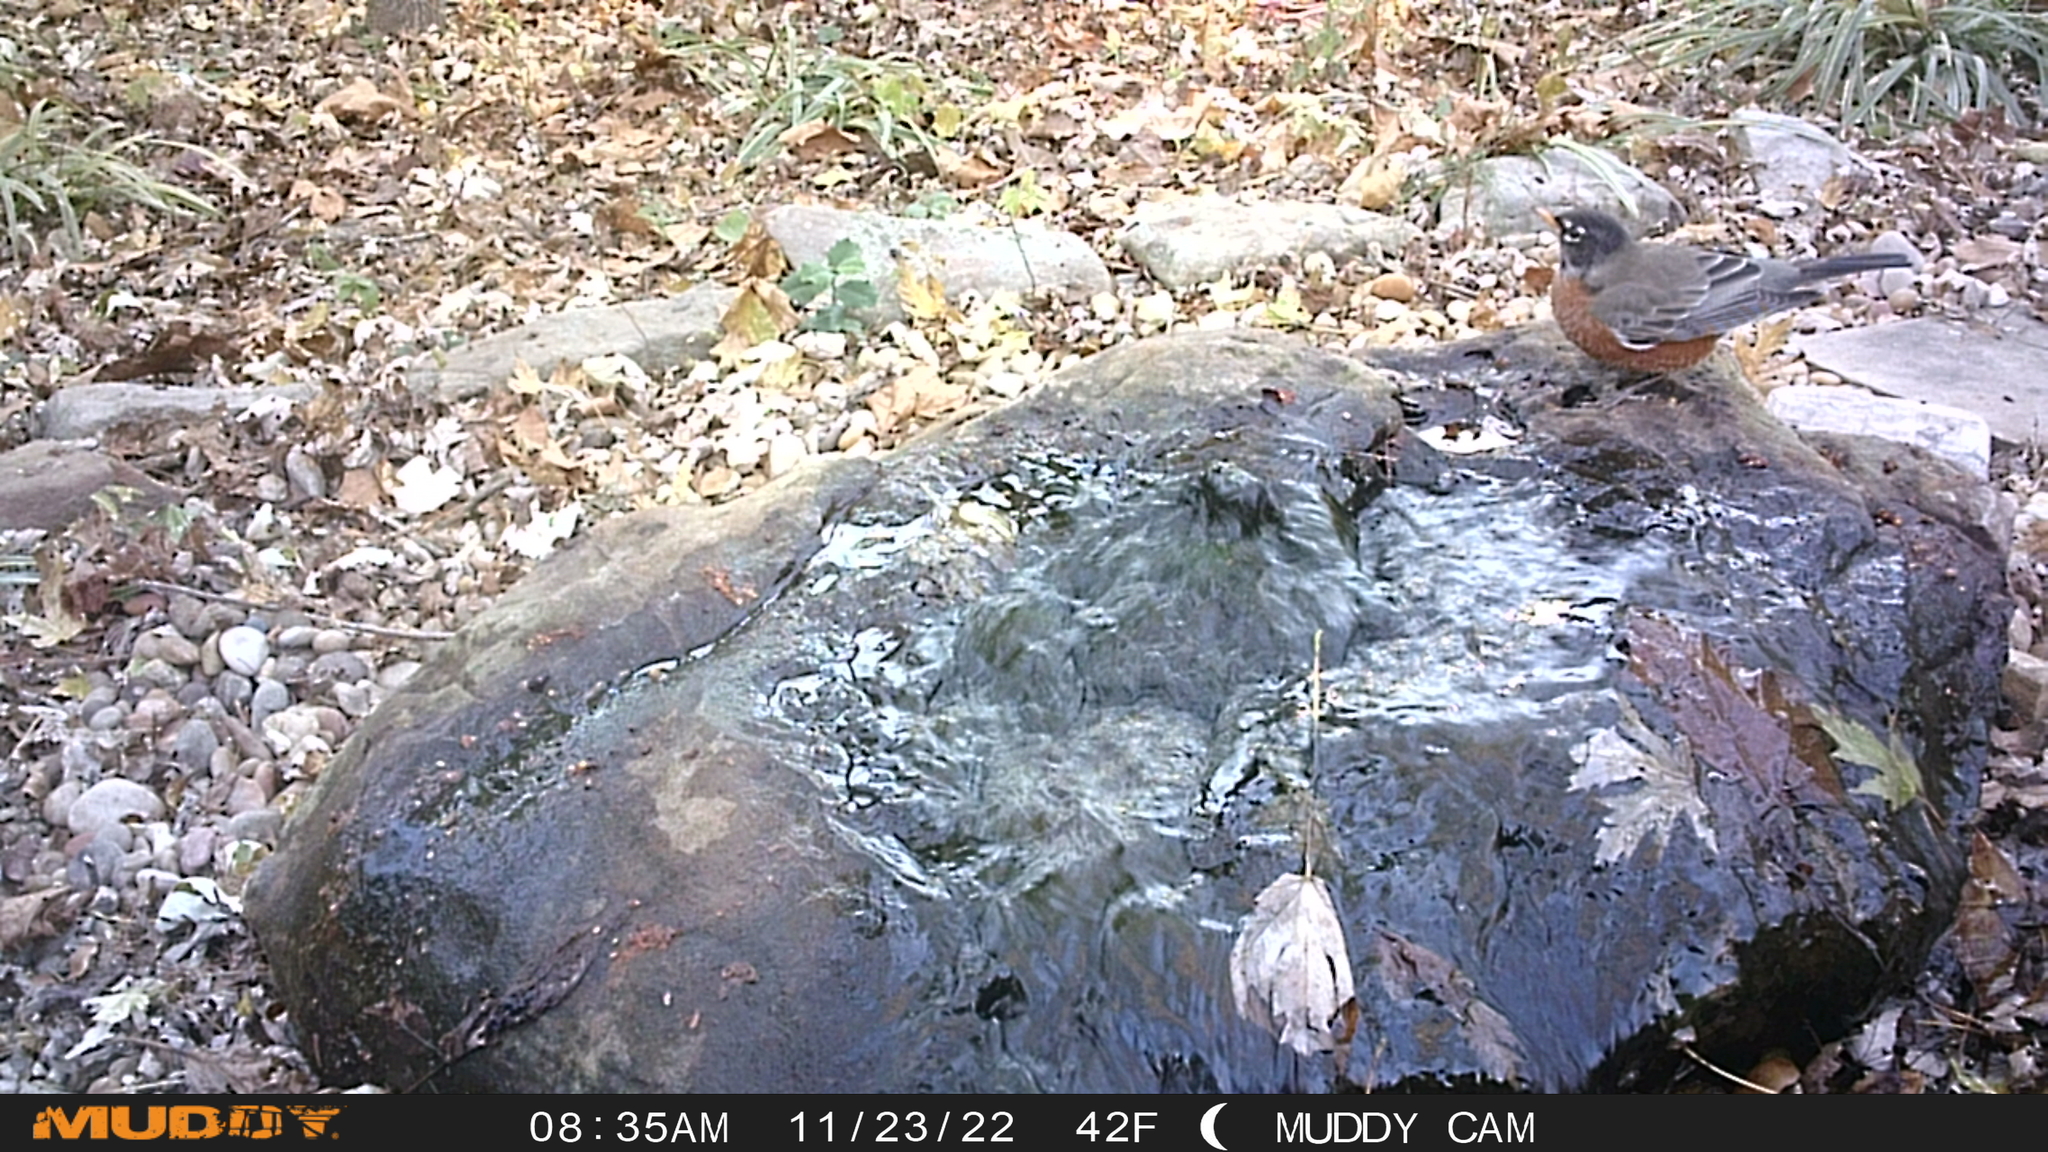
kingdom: Animalia
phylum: Chordata
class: Aves
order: Passeriformes
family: Turdidae
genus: Turdus
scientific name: Turdus migratorius
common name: American robin
